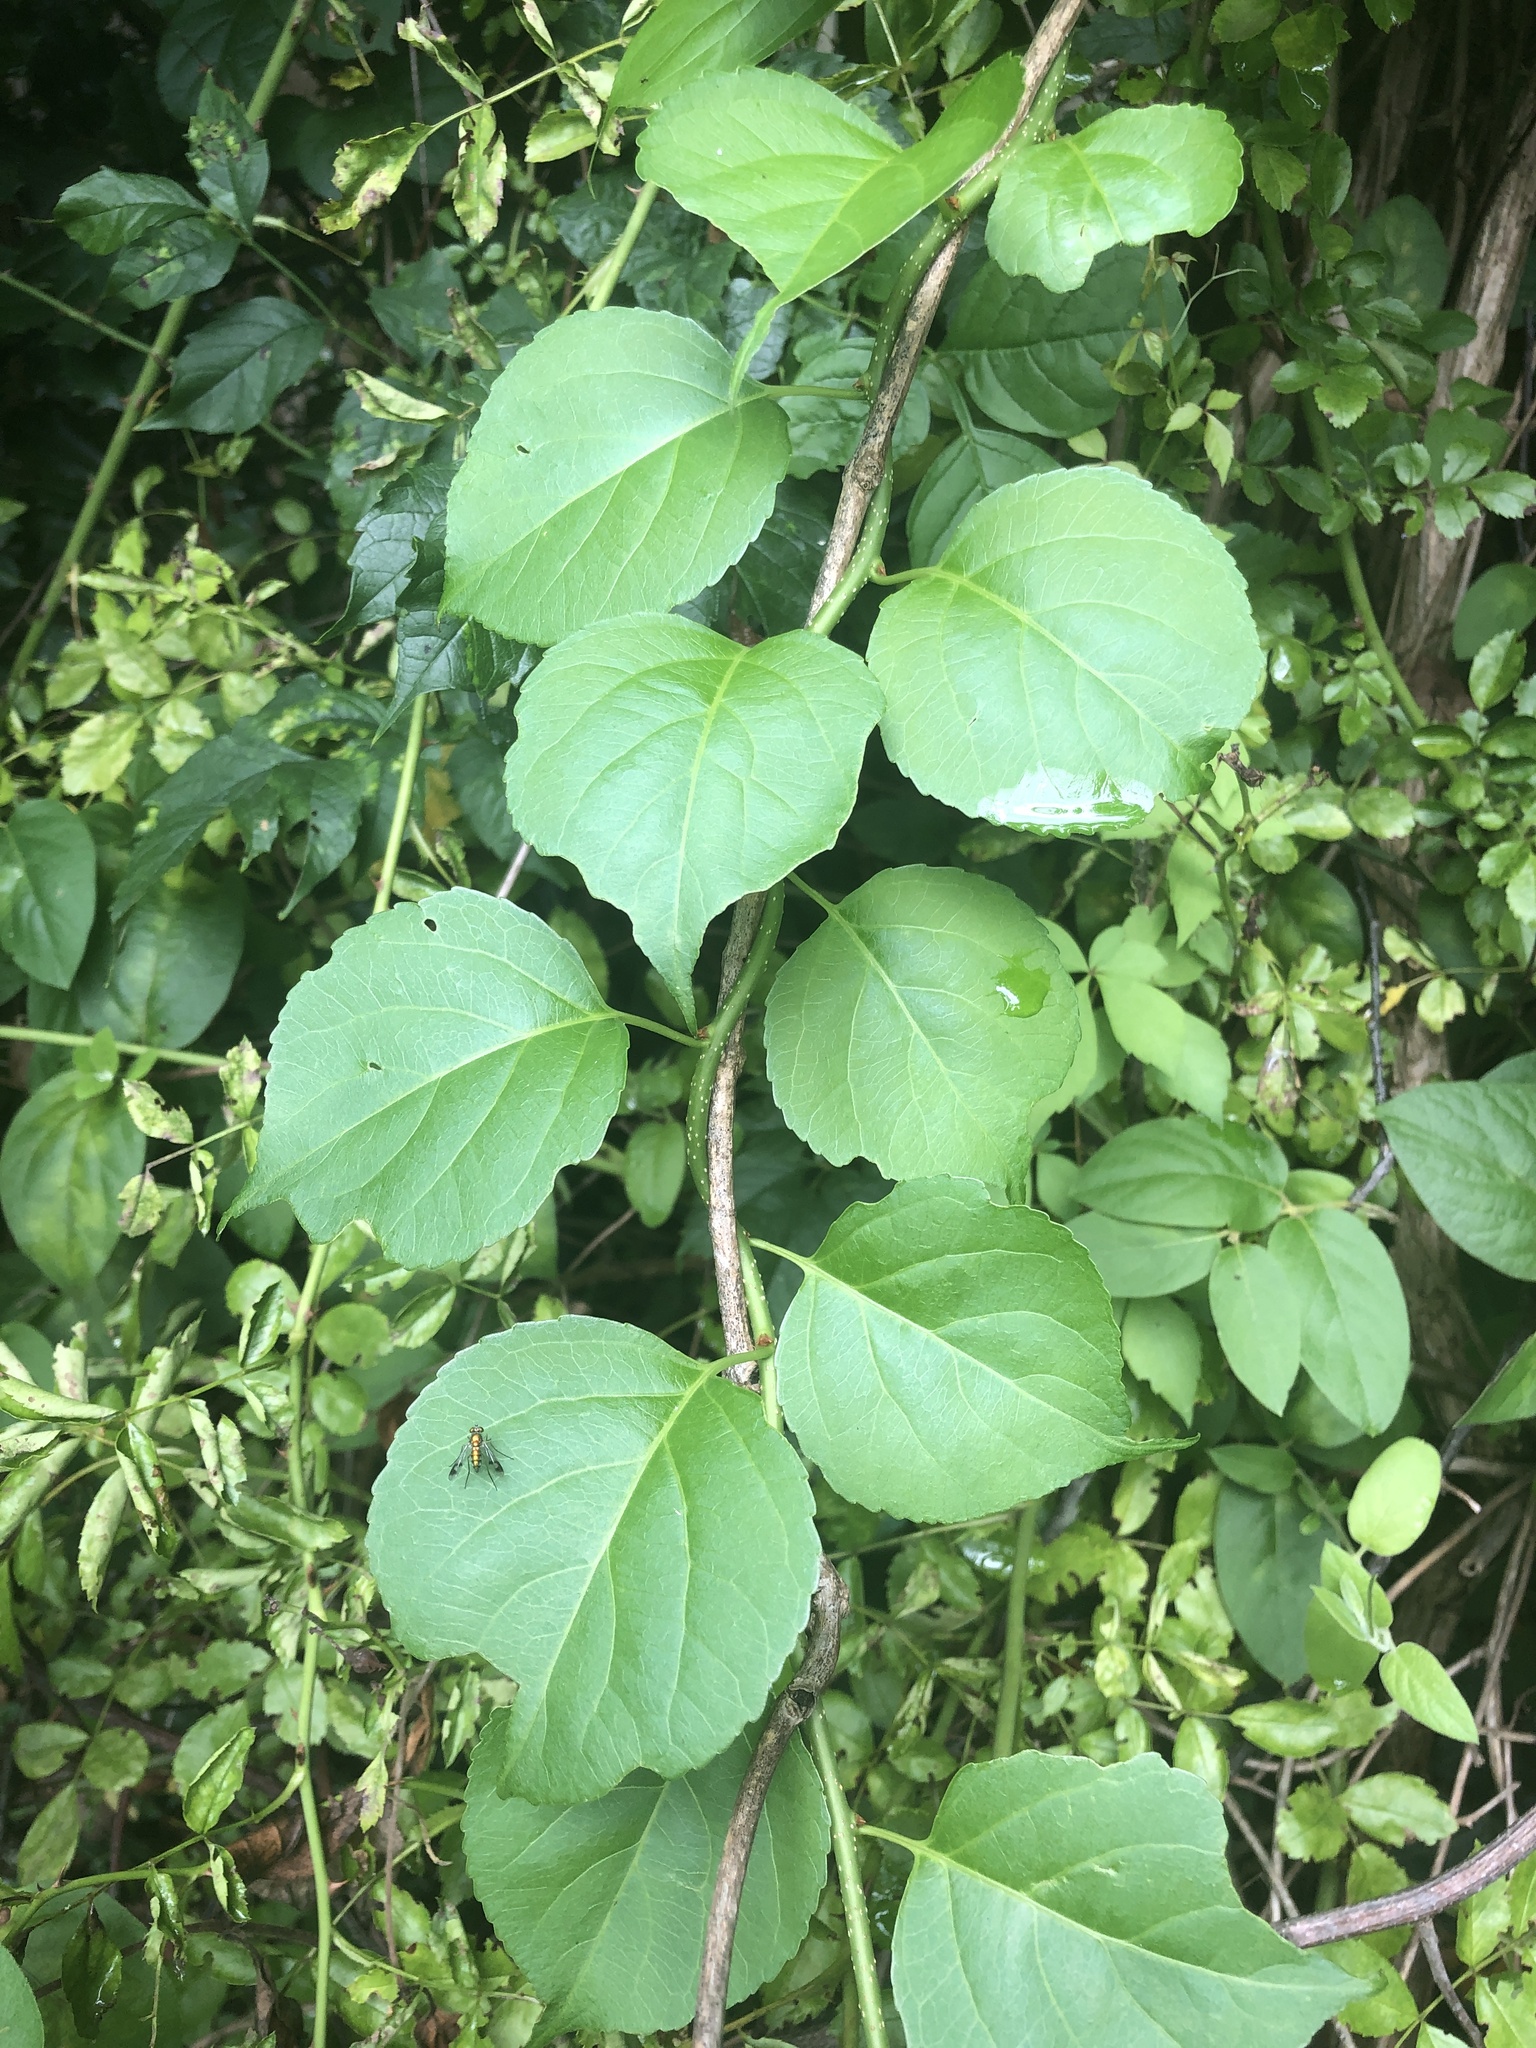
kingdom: Plantae
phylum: Tracheophyta
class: Magnoliopsida
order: Celastrales
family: Celastraceae
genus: Celastrus
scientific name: Celastrus orbiculatus
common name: Oriental bittersweet
